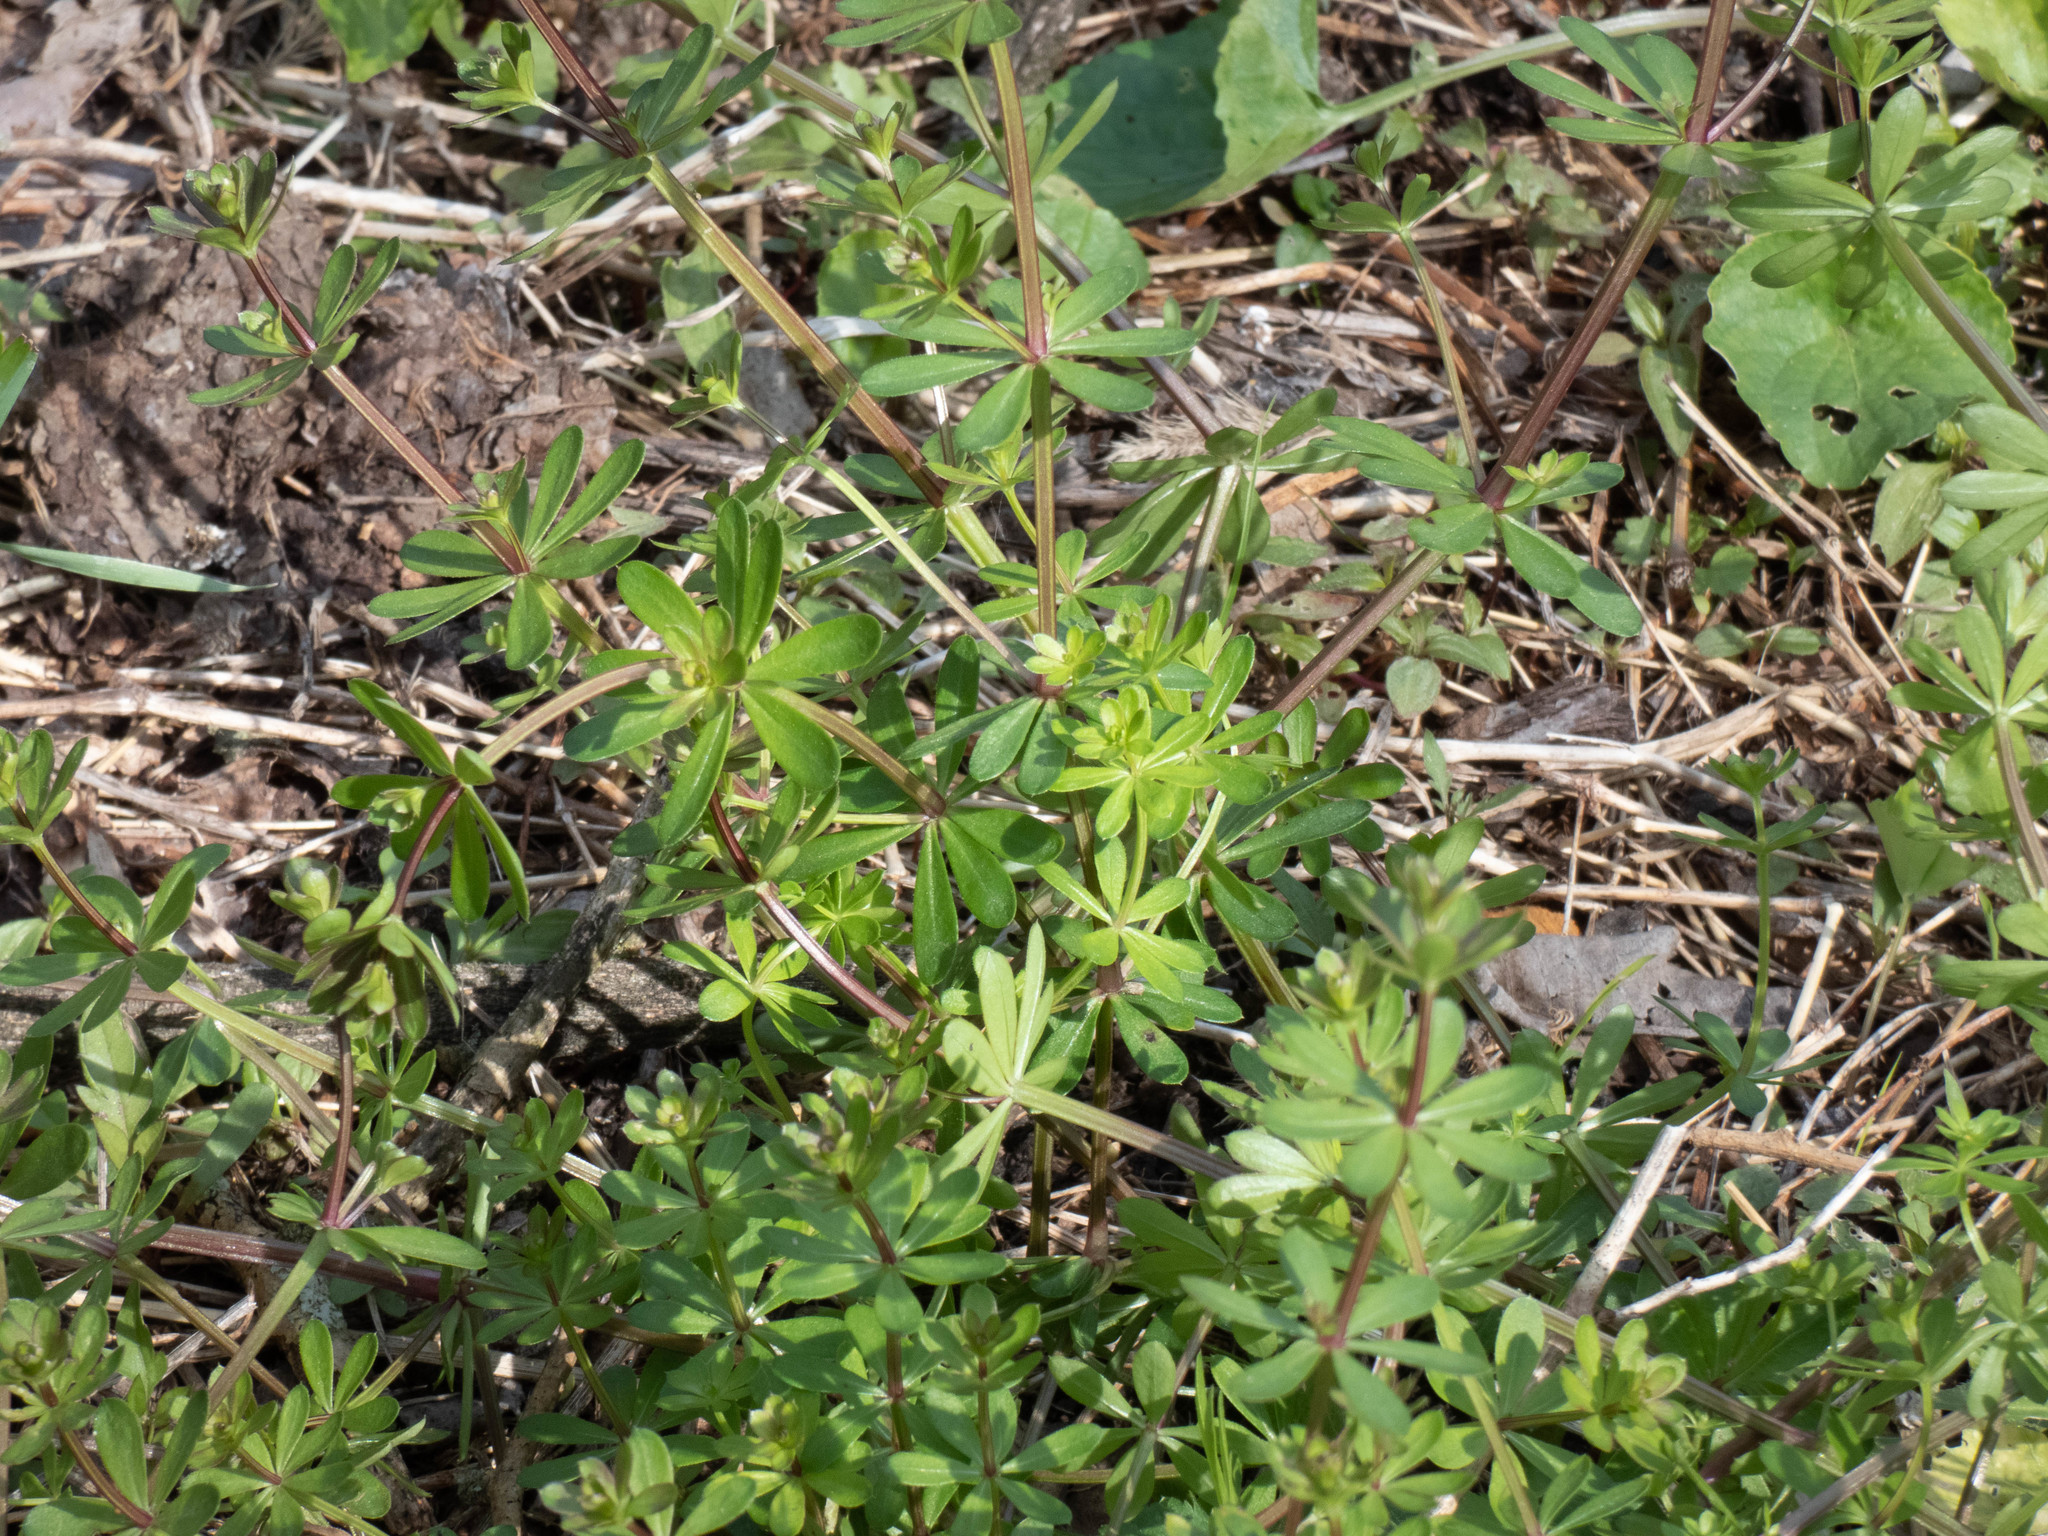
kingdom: Plantae
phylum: Tracheophyta
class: Magnoliopsida
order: Gentianales
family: Rubiaceae
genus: Galium
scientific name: Galium mollugo
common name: Hedge bedstraw
